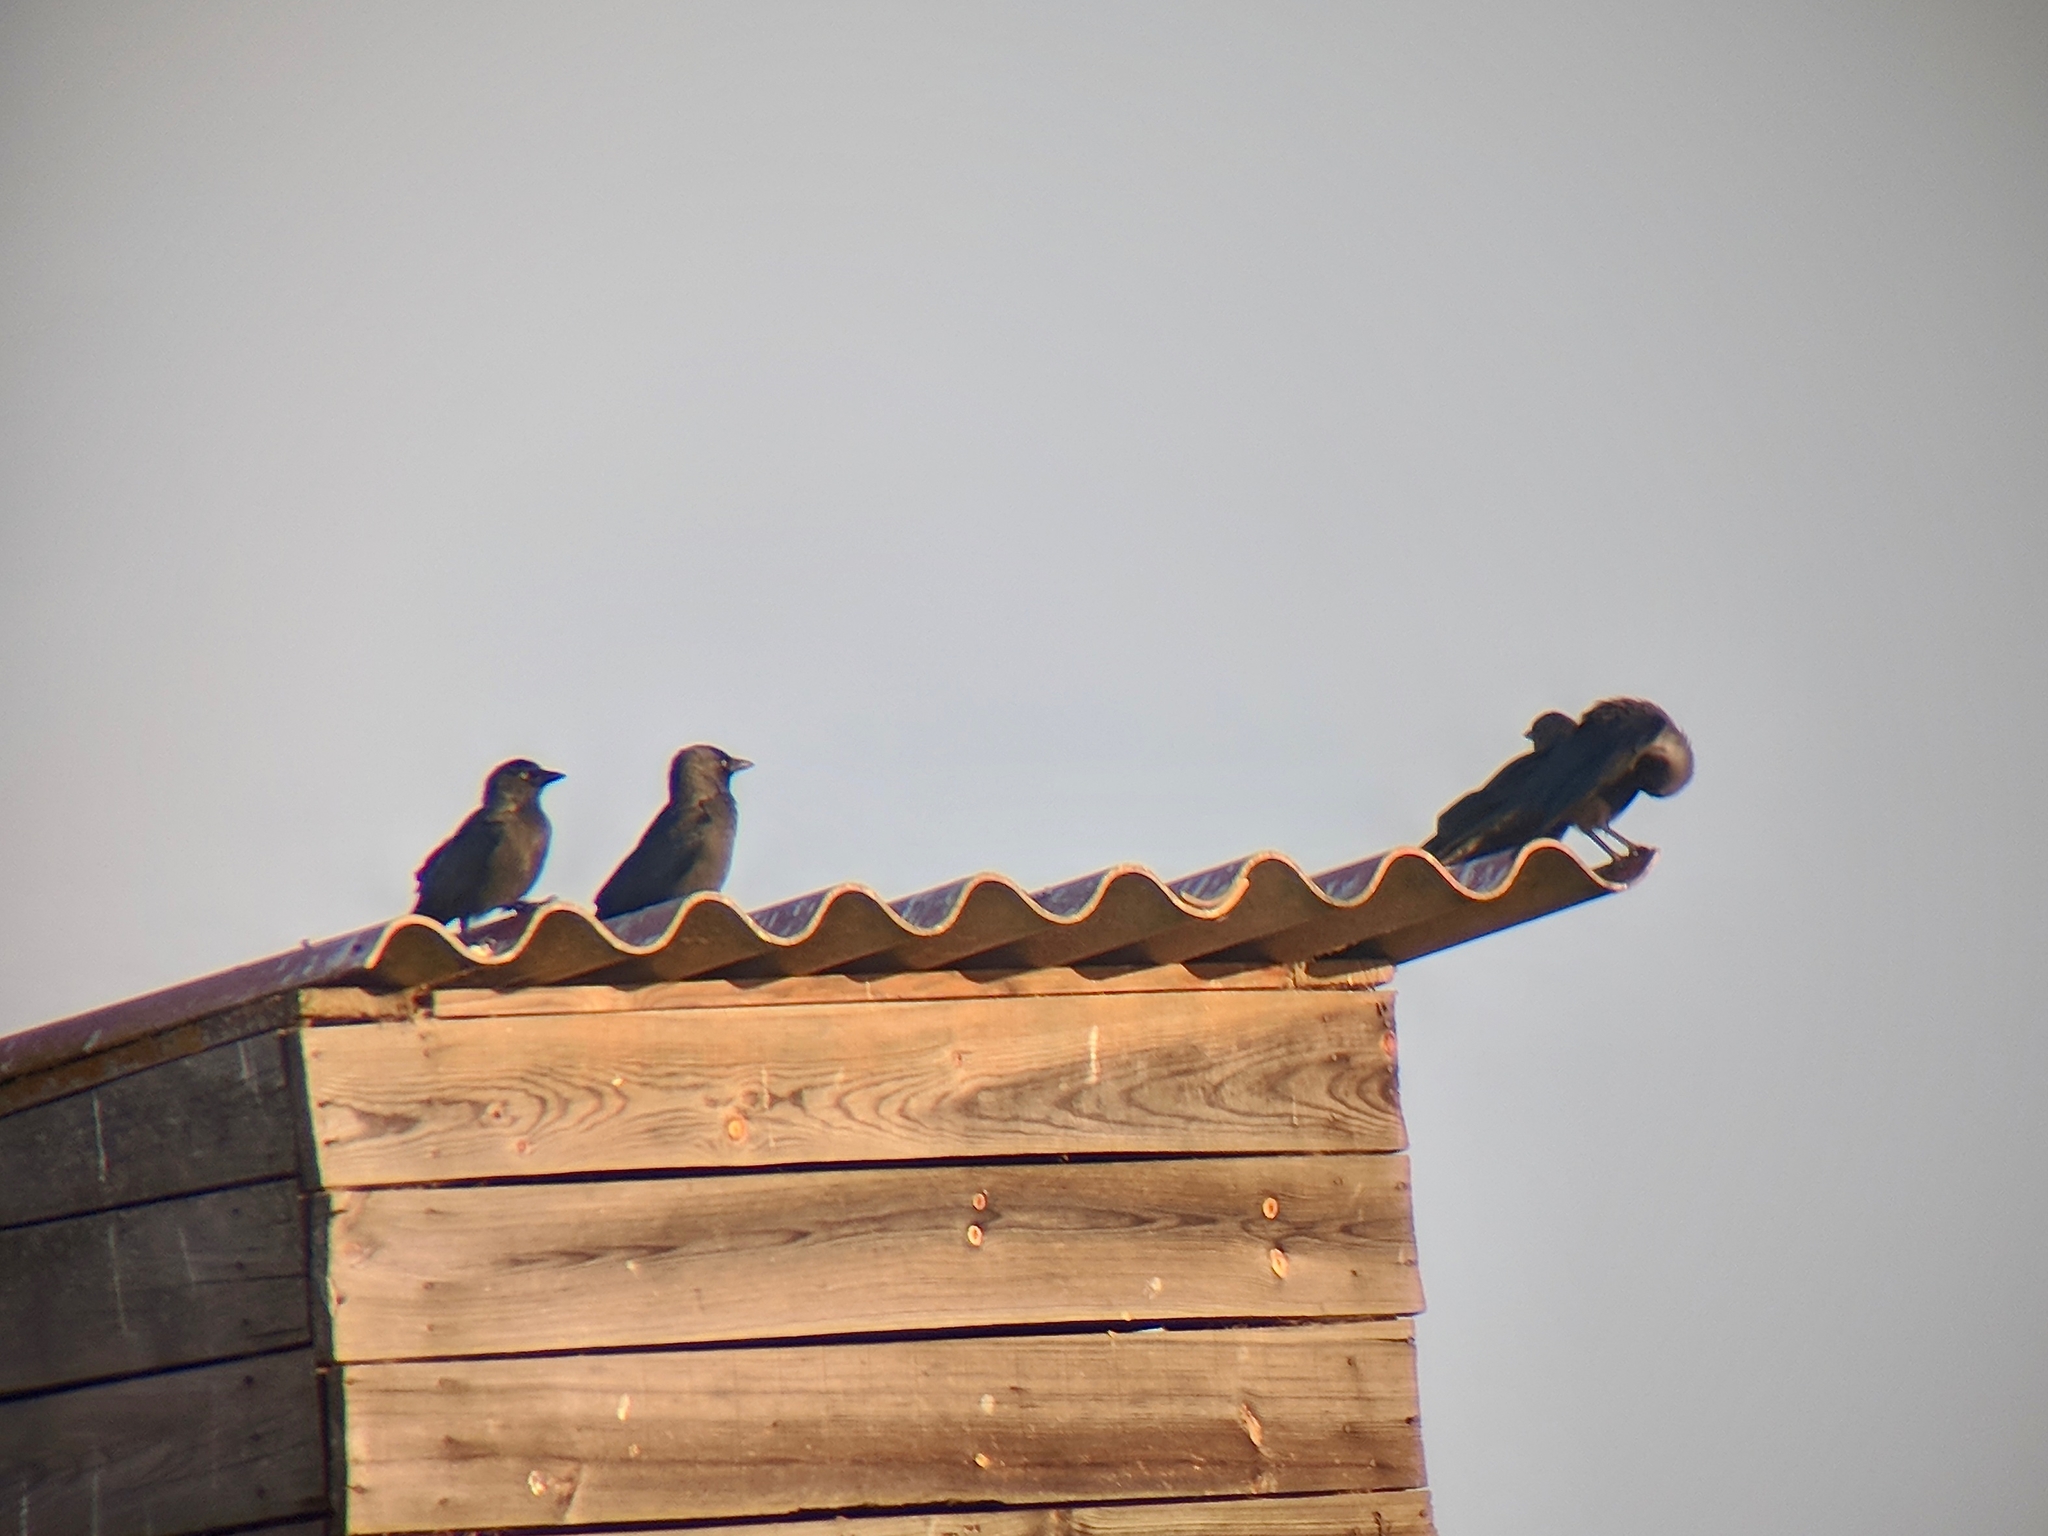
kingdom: Animalia
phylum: Chordata
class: Aves
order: Passeriformes
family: Corvidae
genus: Coloeus
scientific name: Coloeus monedula
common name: Western jackdaw
